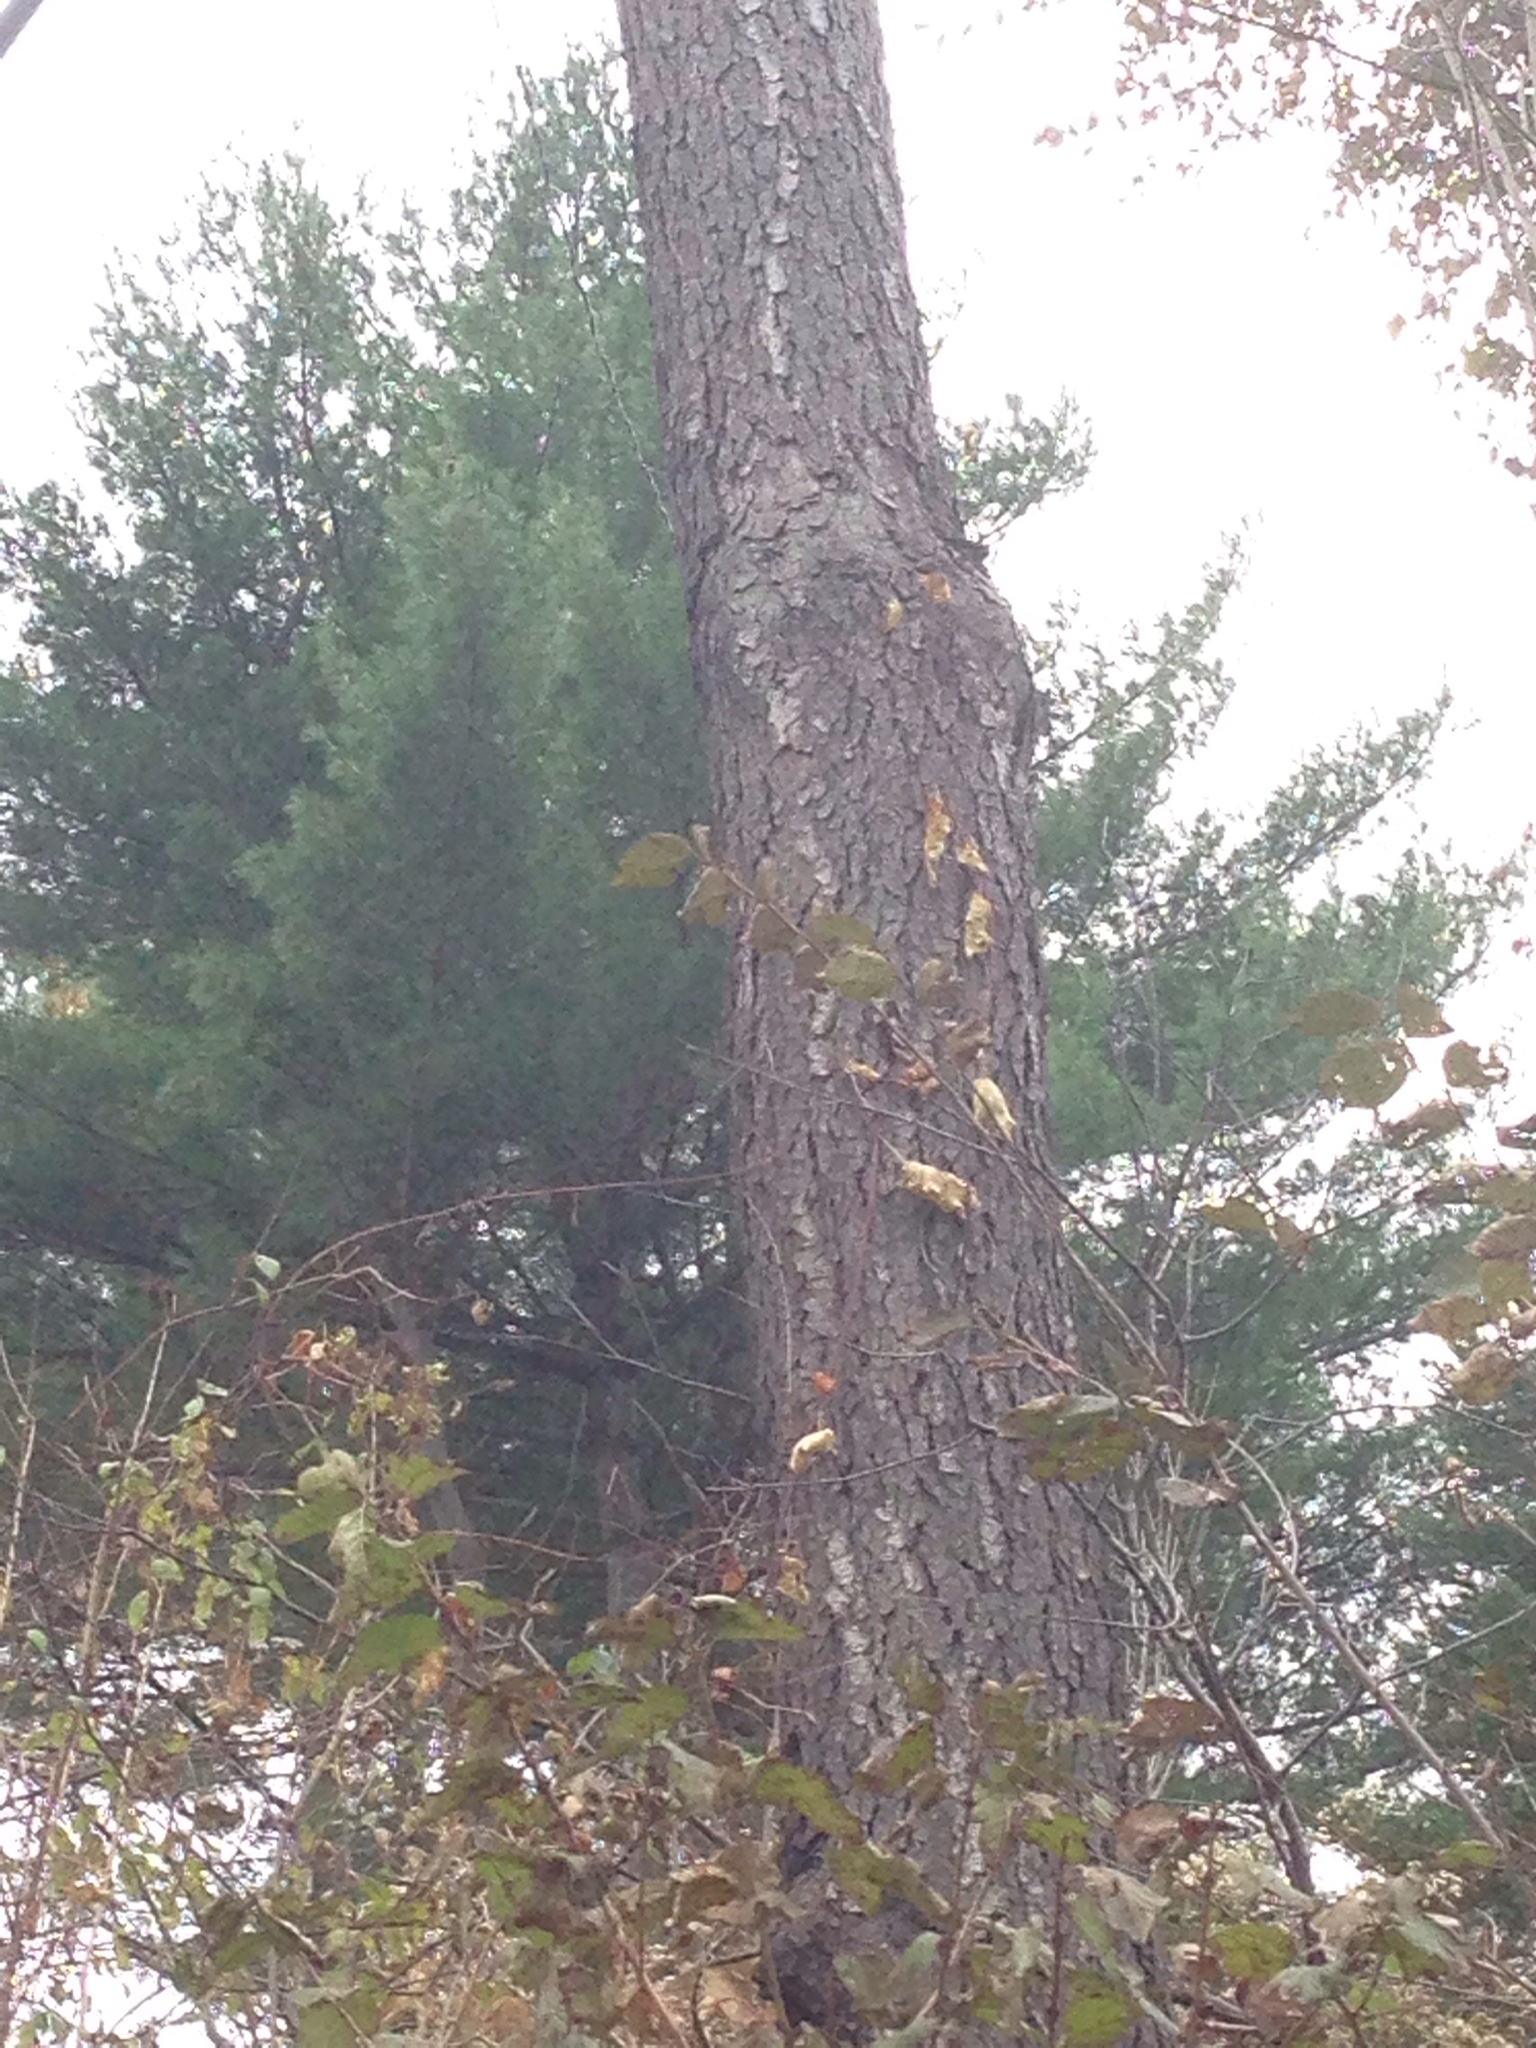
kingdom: Plantae
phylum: Tracheophyta
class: Magnoliopsida
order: Rosales
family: Rosaceae
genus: Prunus
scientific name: Prunus serotina
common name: Black cherry
